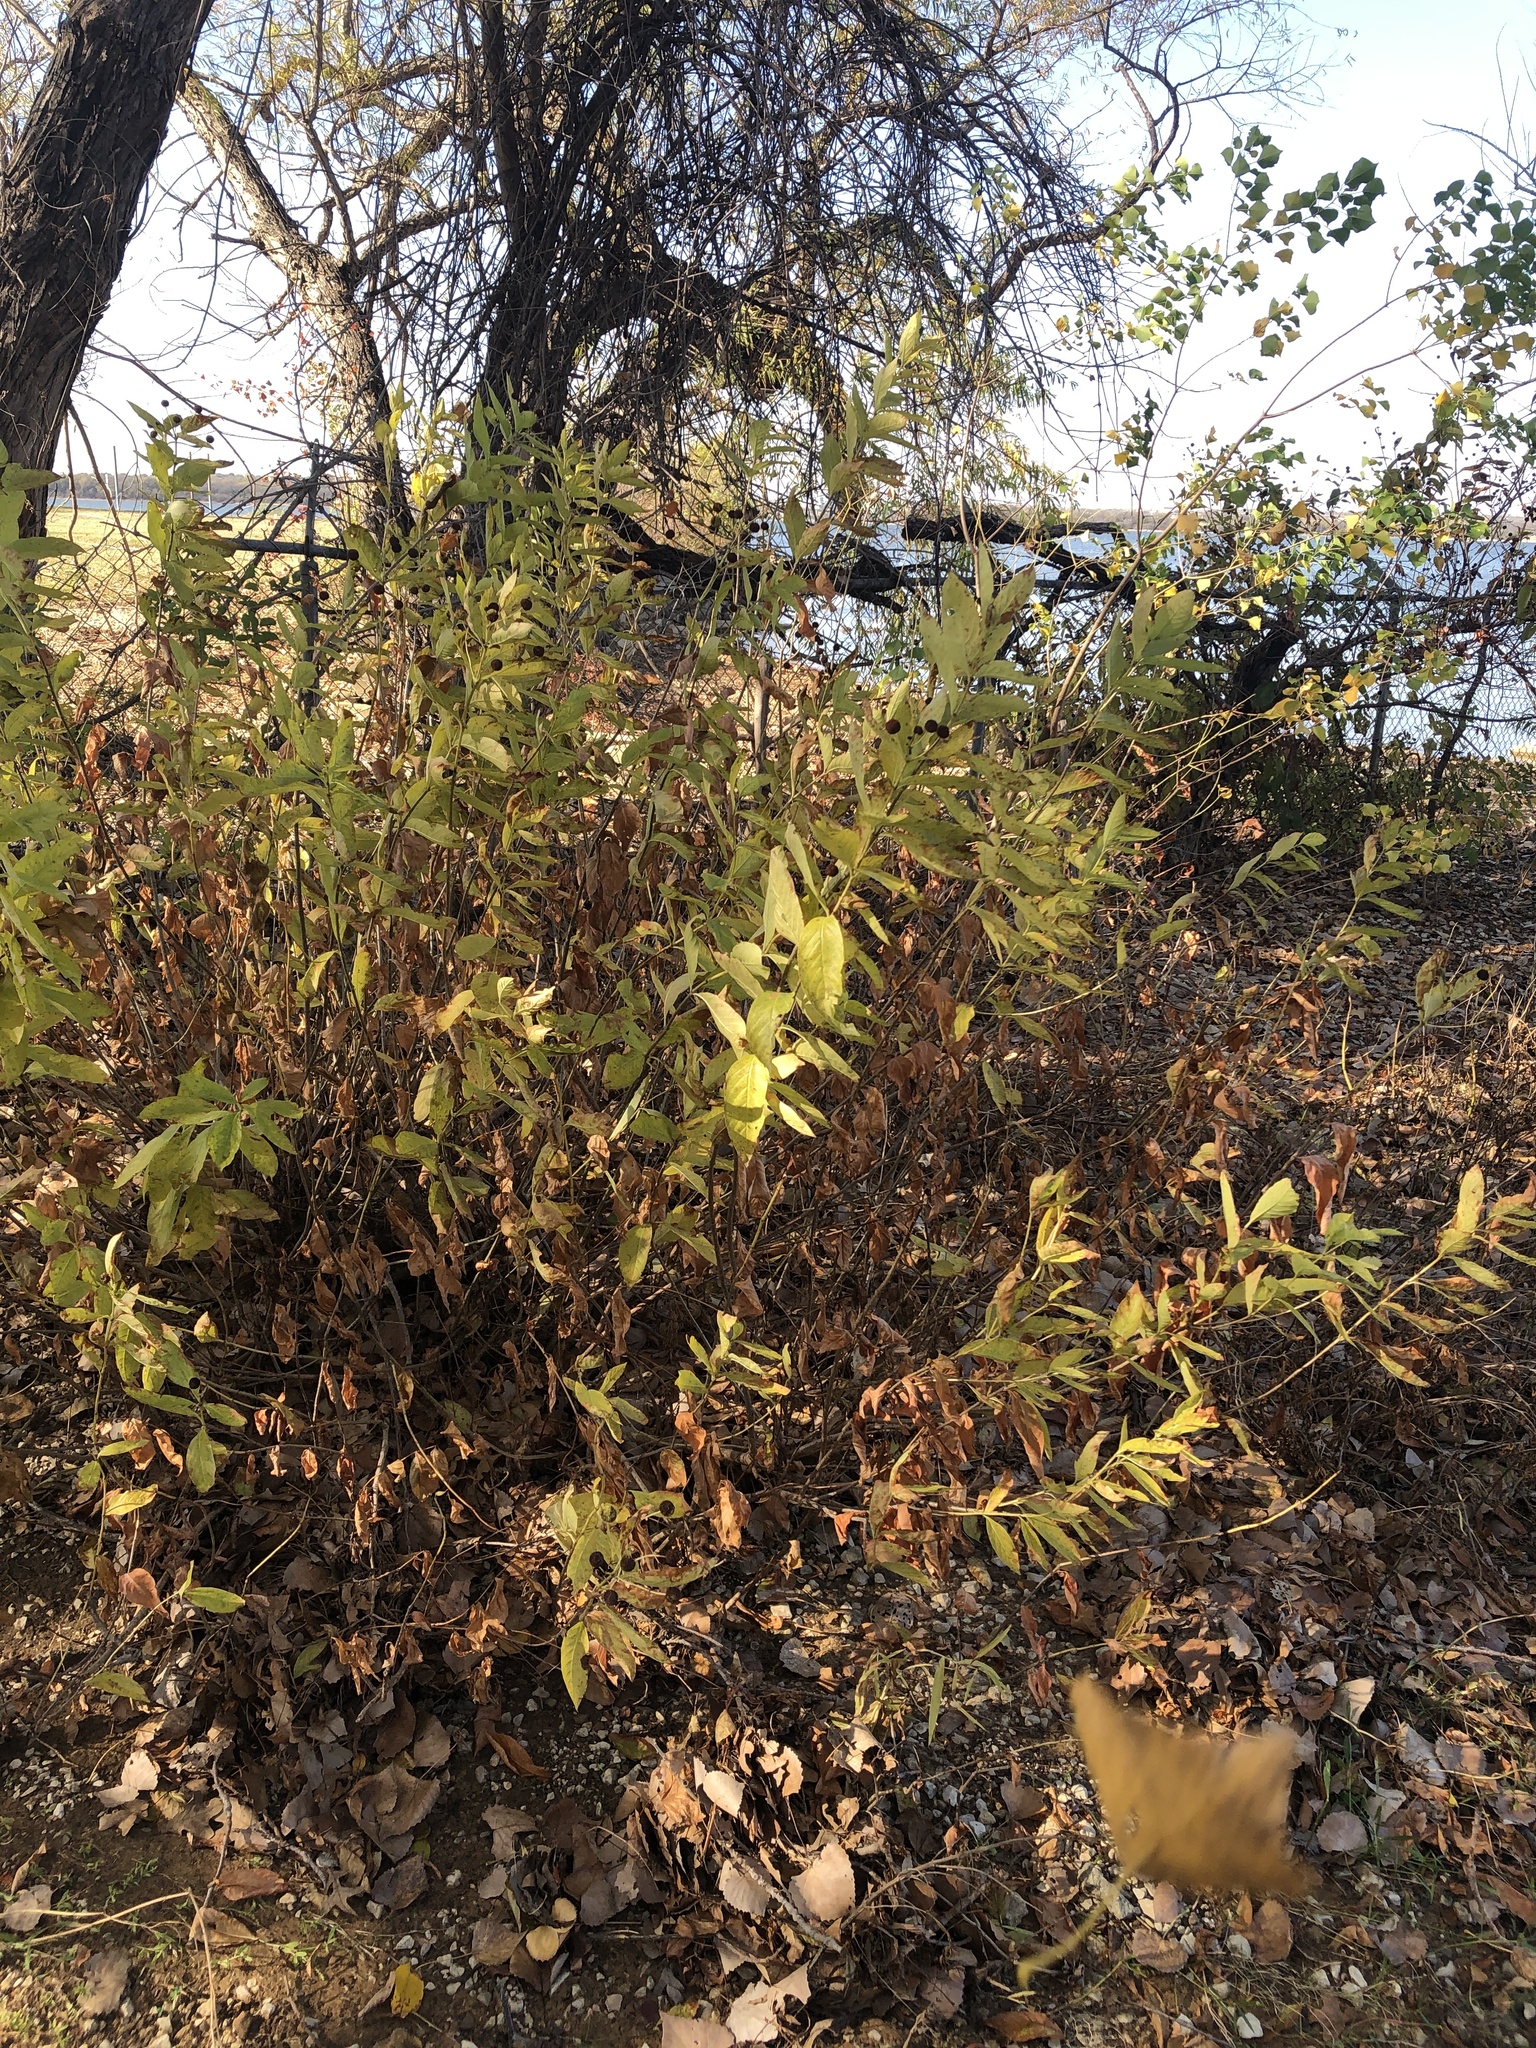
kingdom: Plantae
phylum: Tracheophyta
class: Magnoliopsida
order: Gentianales
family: Rubiaceae
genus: Cephalanthus
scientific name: Cephalanthus occidentalis
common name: Button-willow
